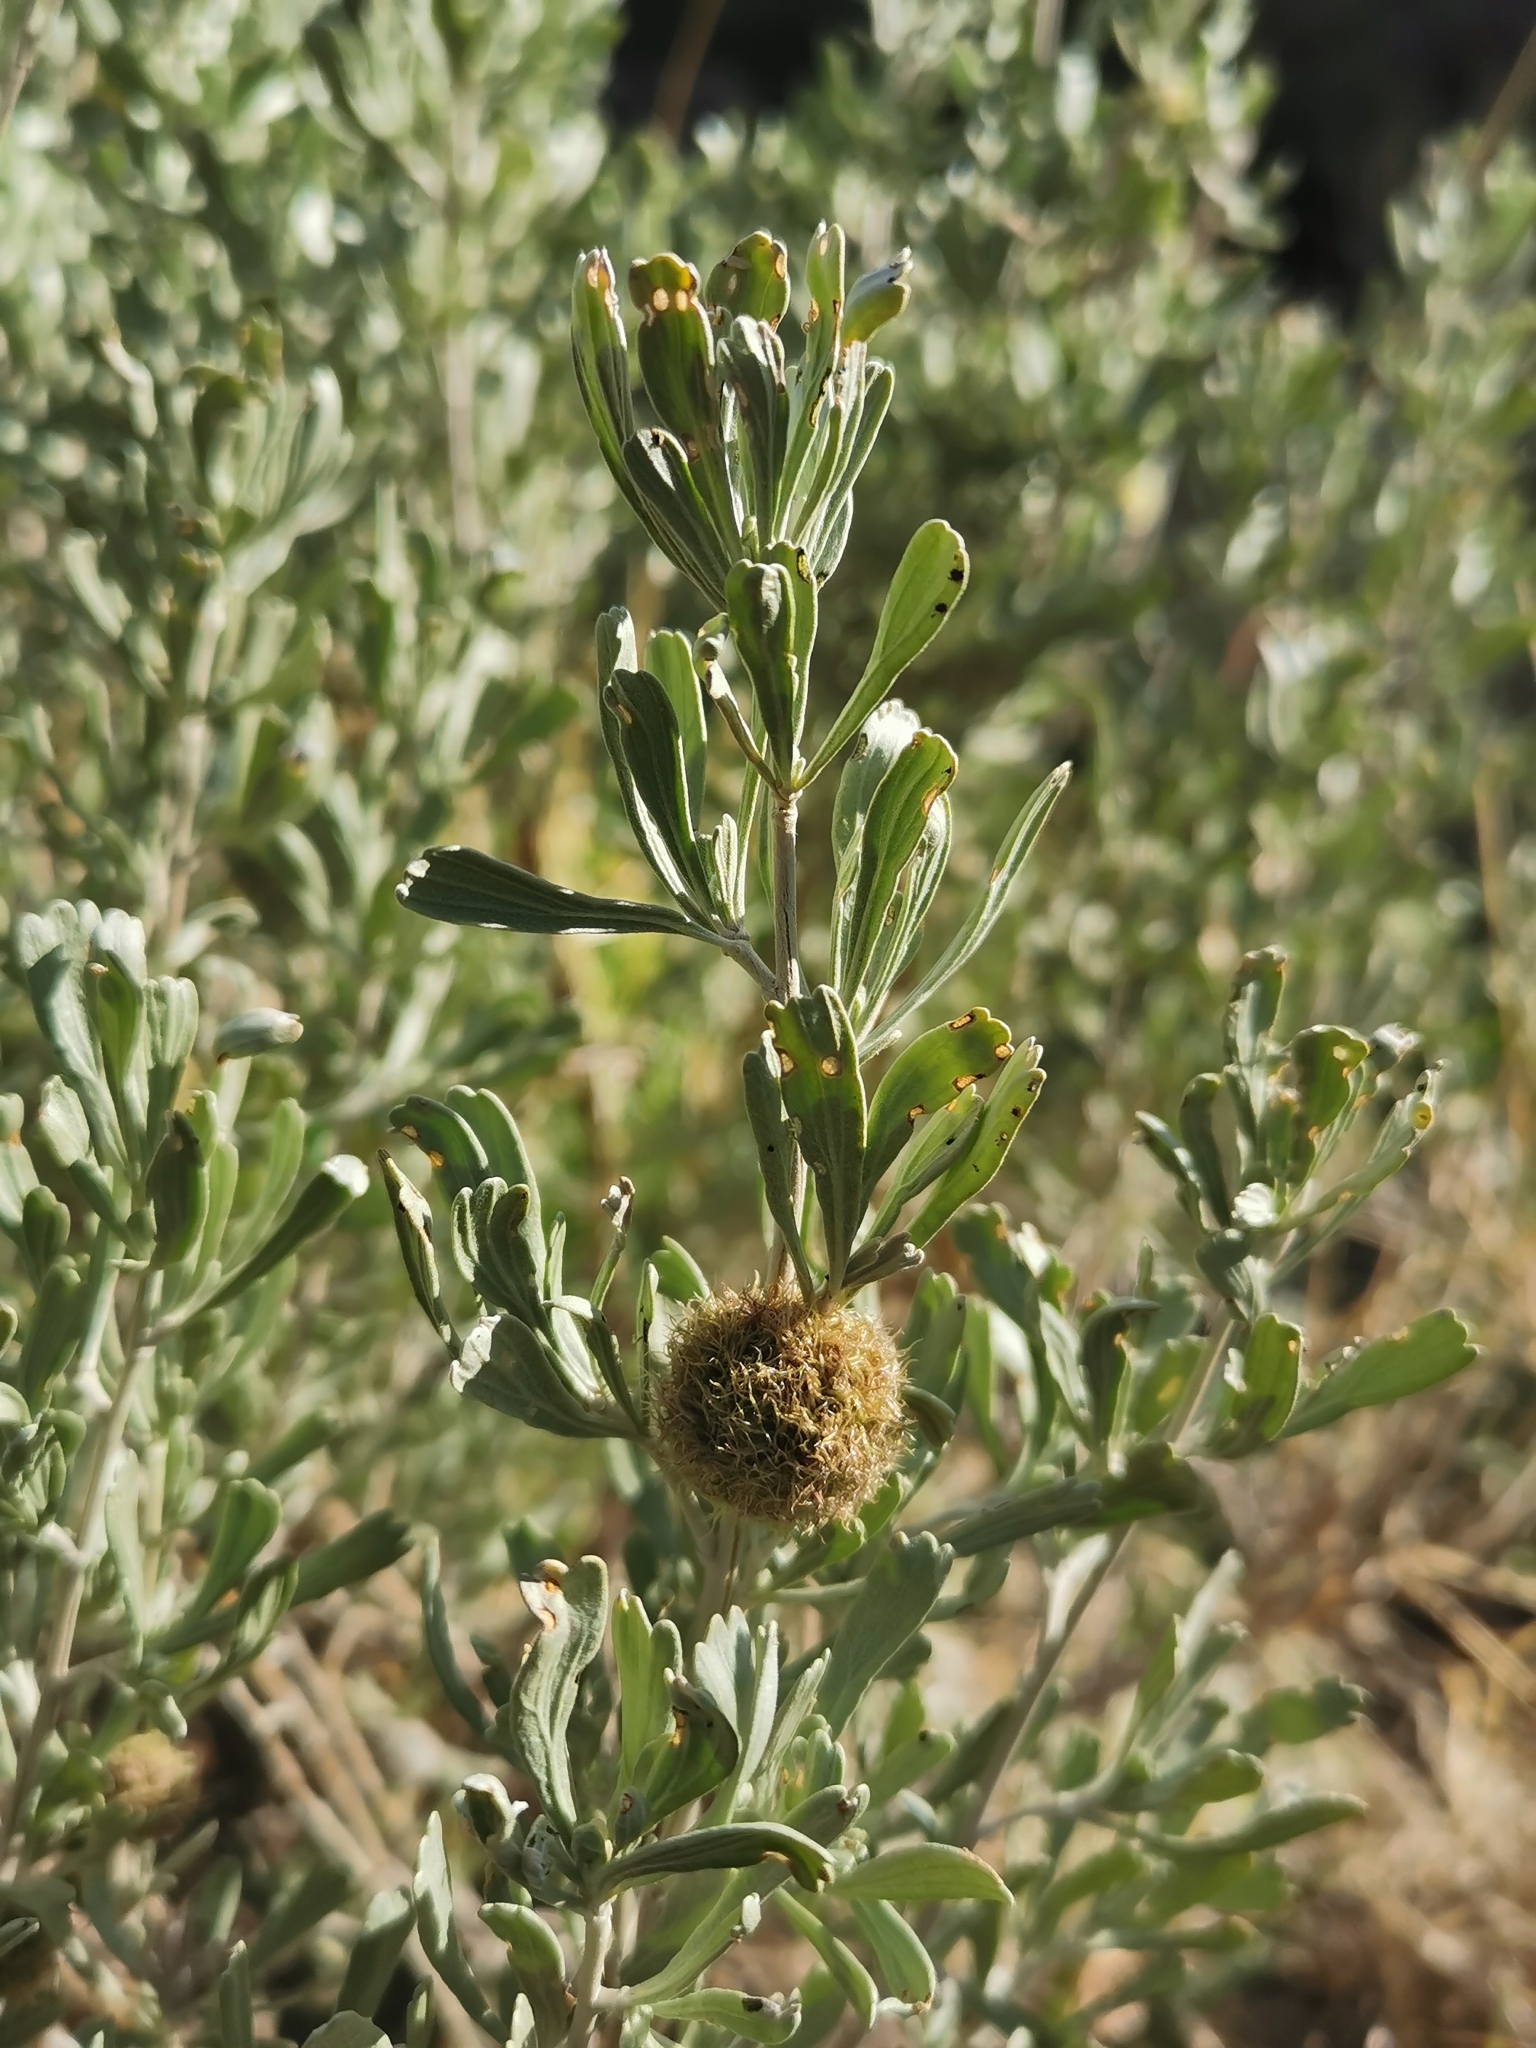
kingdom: Animalia
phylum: Arthropoda
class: Insecta
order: Diptera
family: Cecidomyiidae
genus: Rhopalomyia
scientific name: Rhopalomyia medusa
